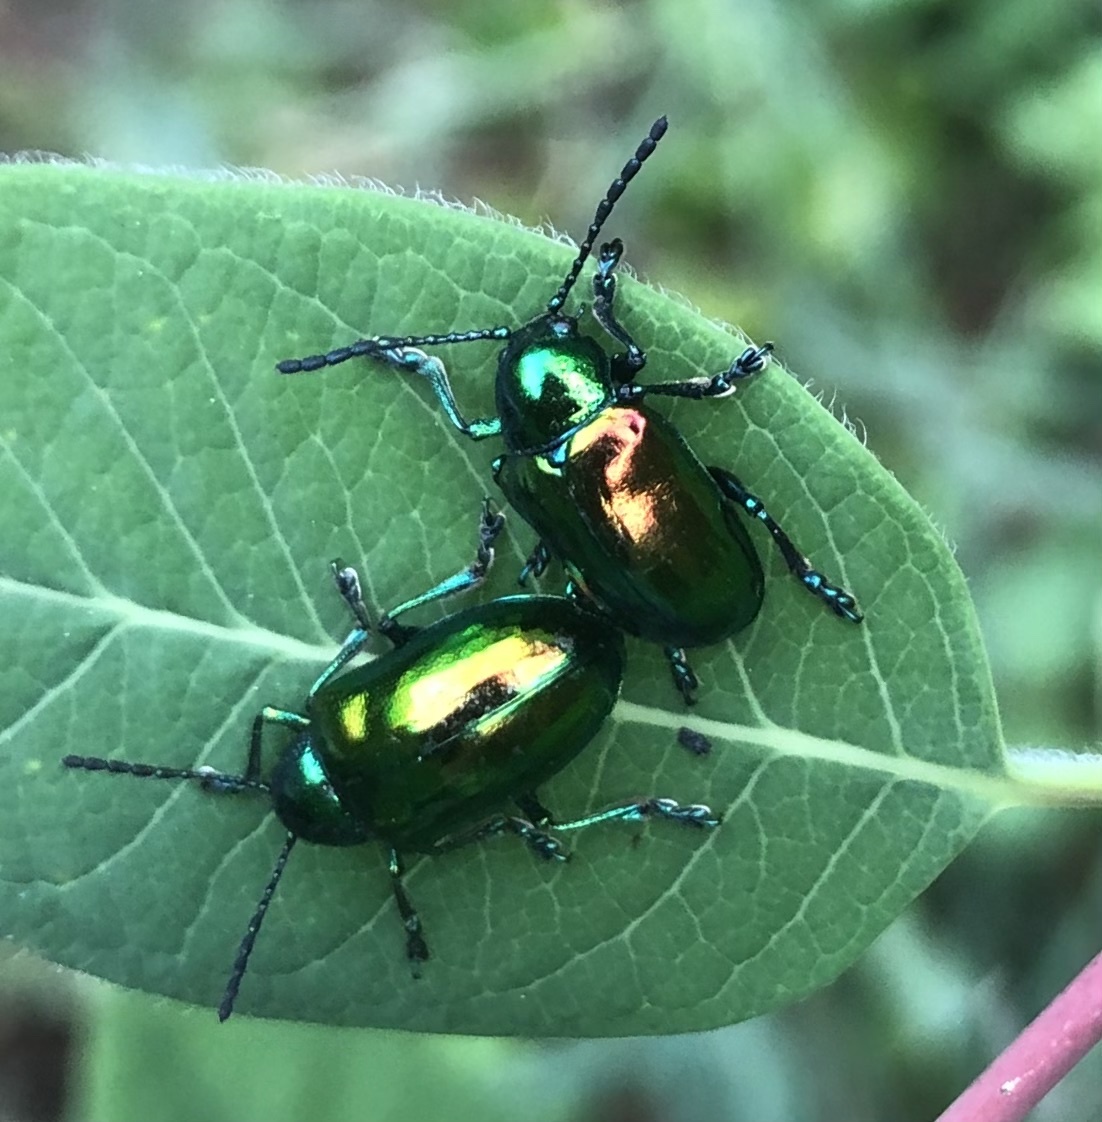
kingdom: Animalia
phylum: Arthropoda
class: Insecta
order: Coleoptera
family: Chrysomelidae
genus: Chrysochus
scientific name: Chrysochus auratus
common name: Dogbane leaf beetle
